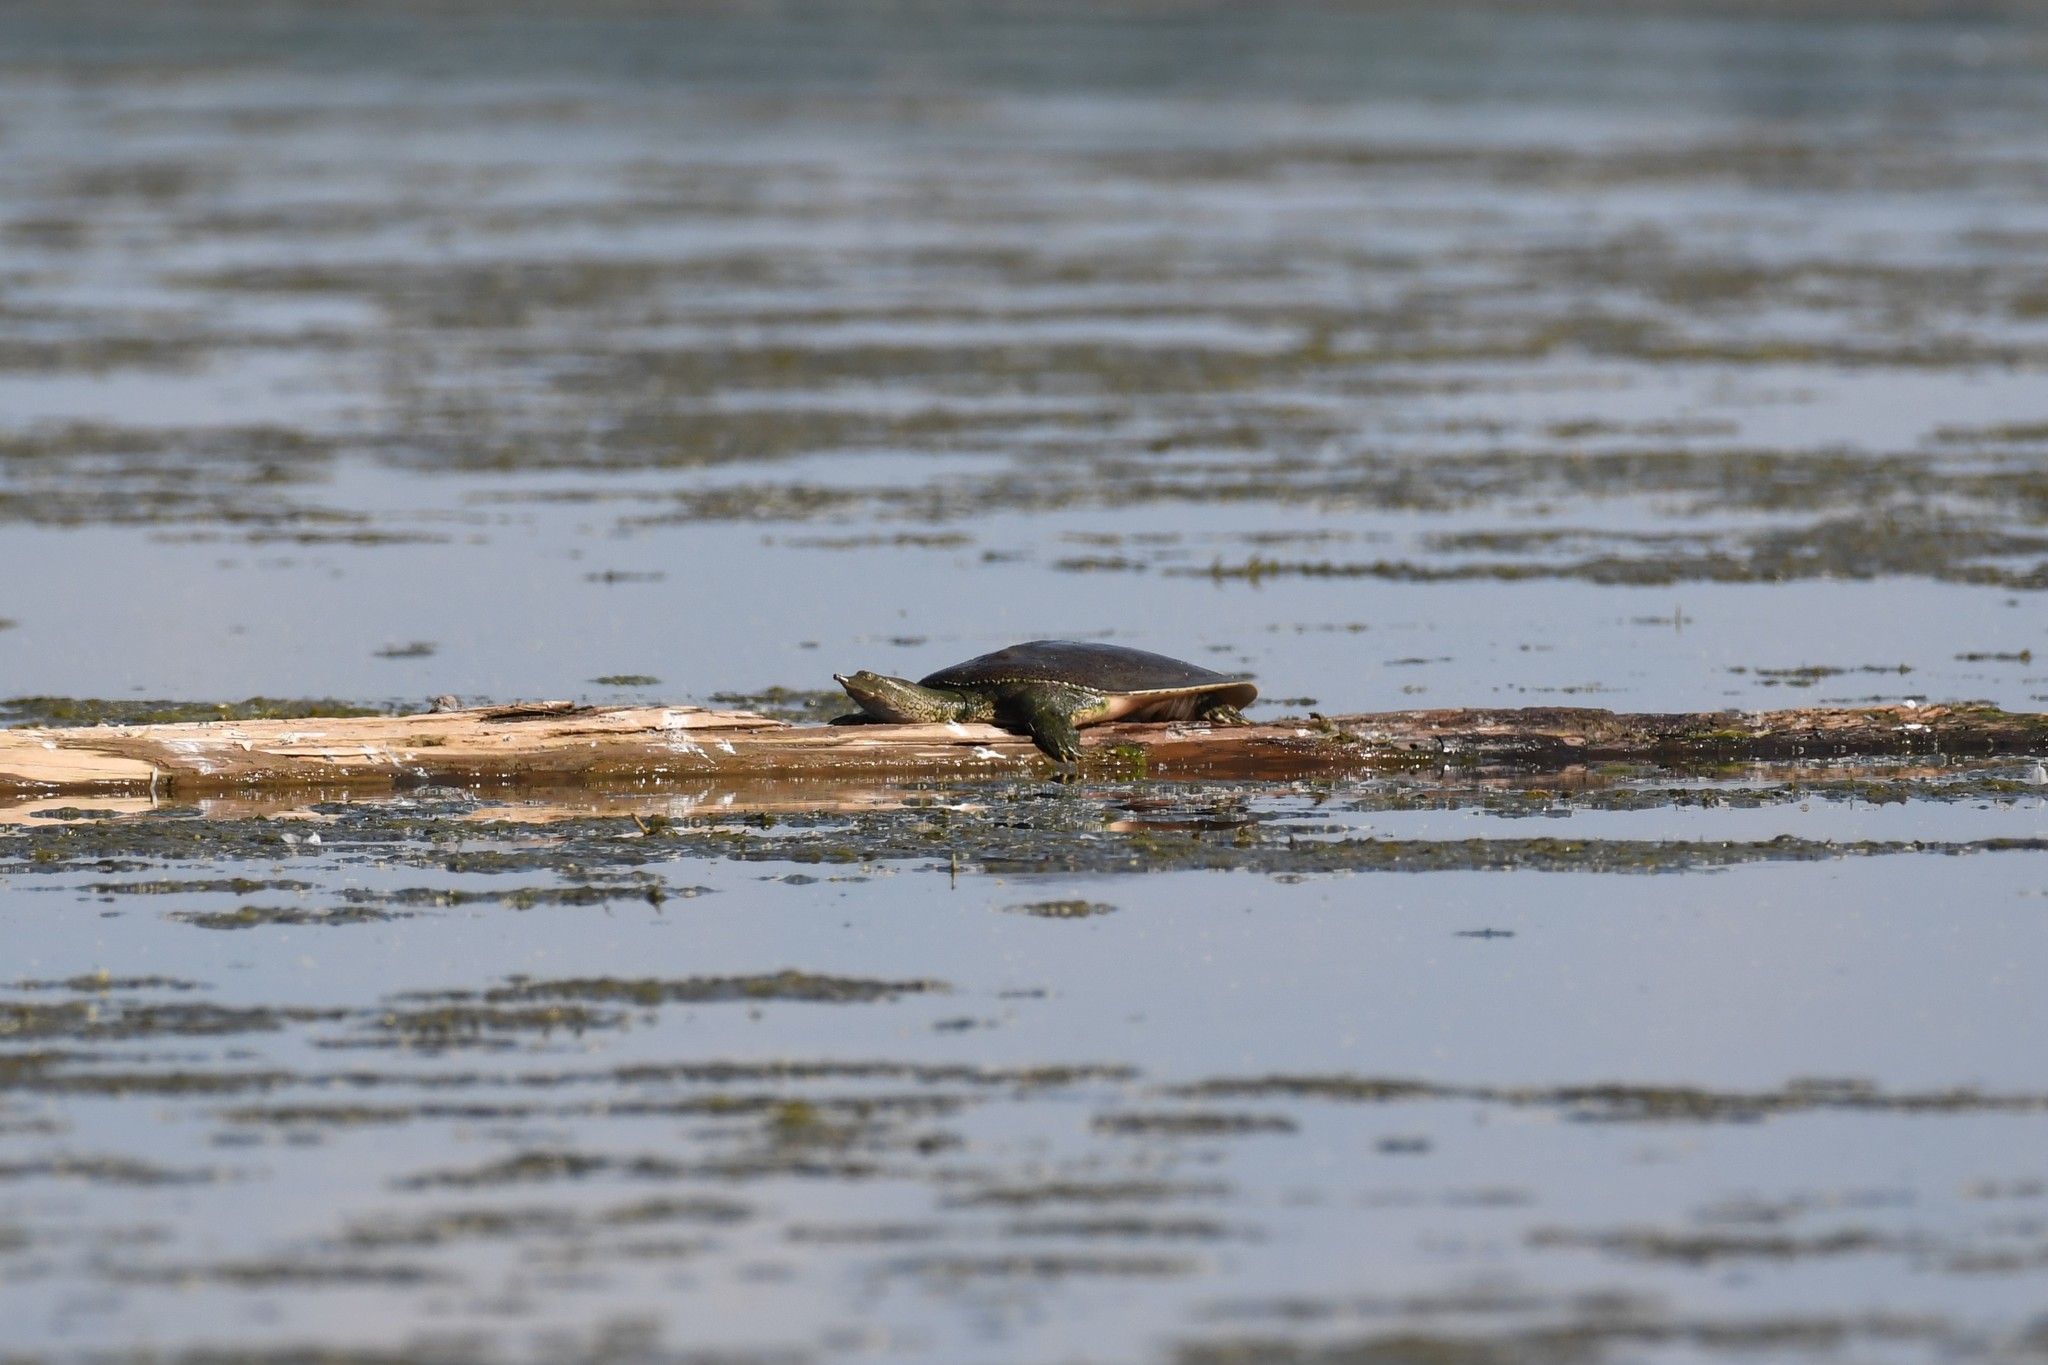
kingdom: Animalia
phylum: Chordata
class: Testudines
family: Trionychidae
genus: Apalone
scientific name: Apalone spinifera
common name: Spiny softshell turtle
